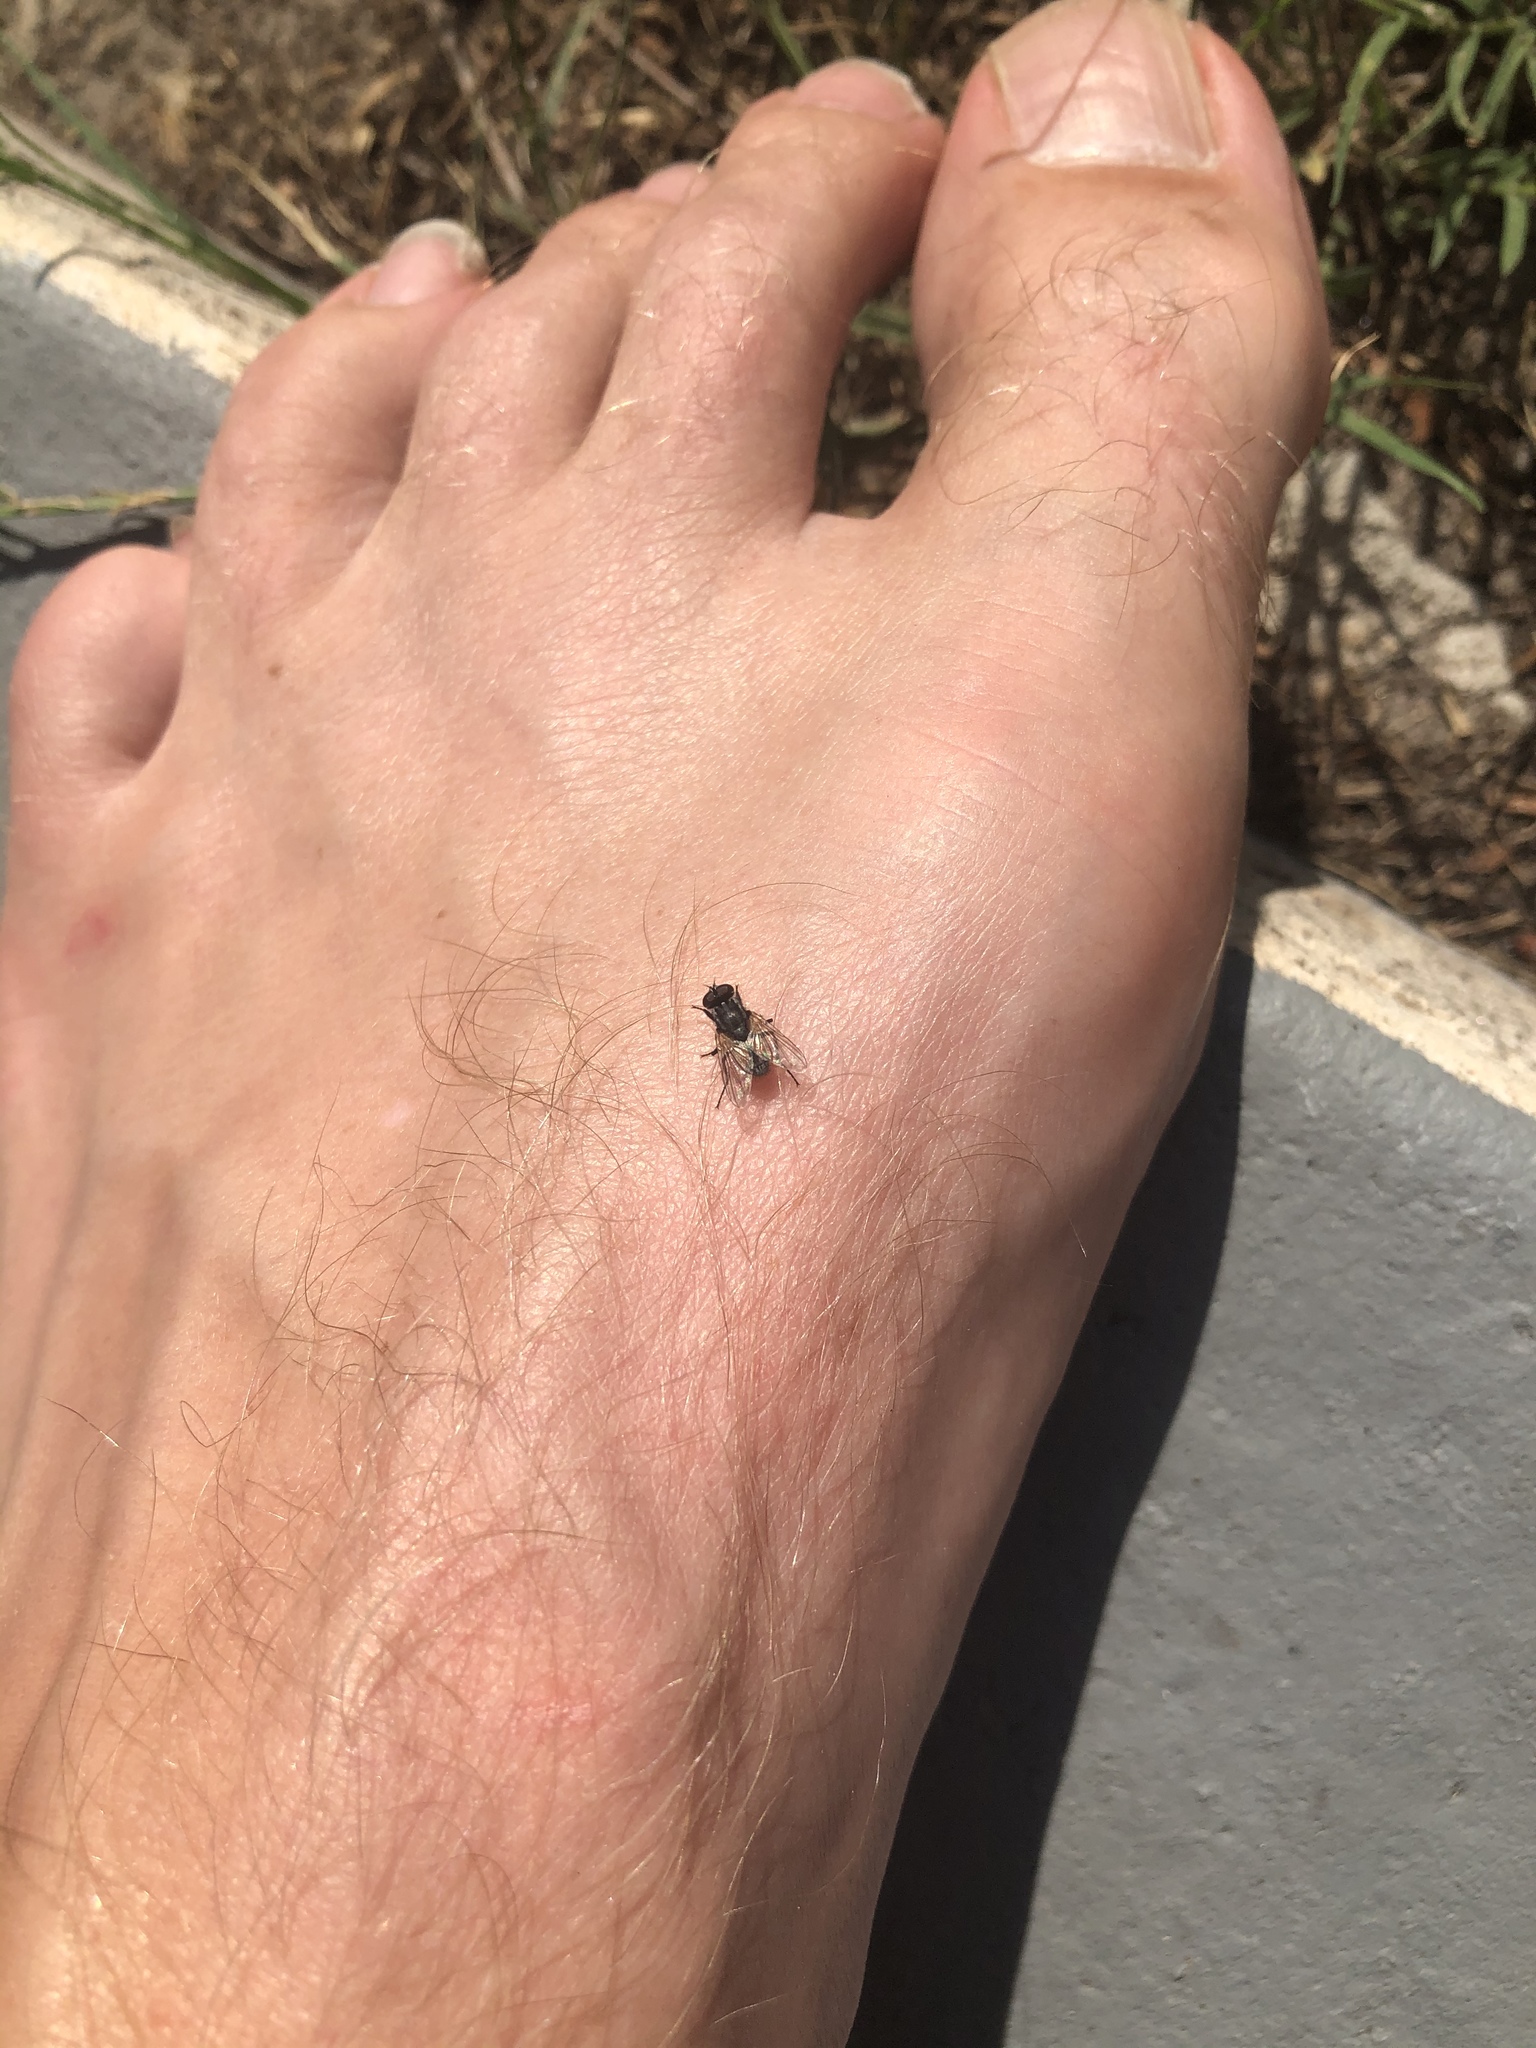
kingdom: Animalia
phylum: Arthropoda
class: Insecta
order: Diptera
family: Muscidae
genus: Musca
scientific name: Musca domestica
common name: House fly
